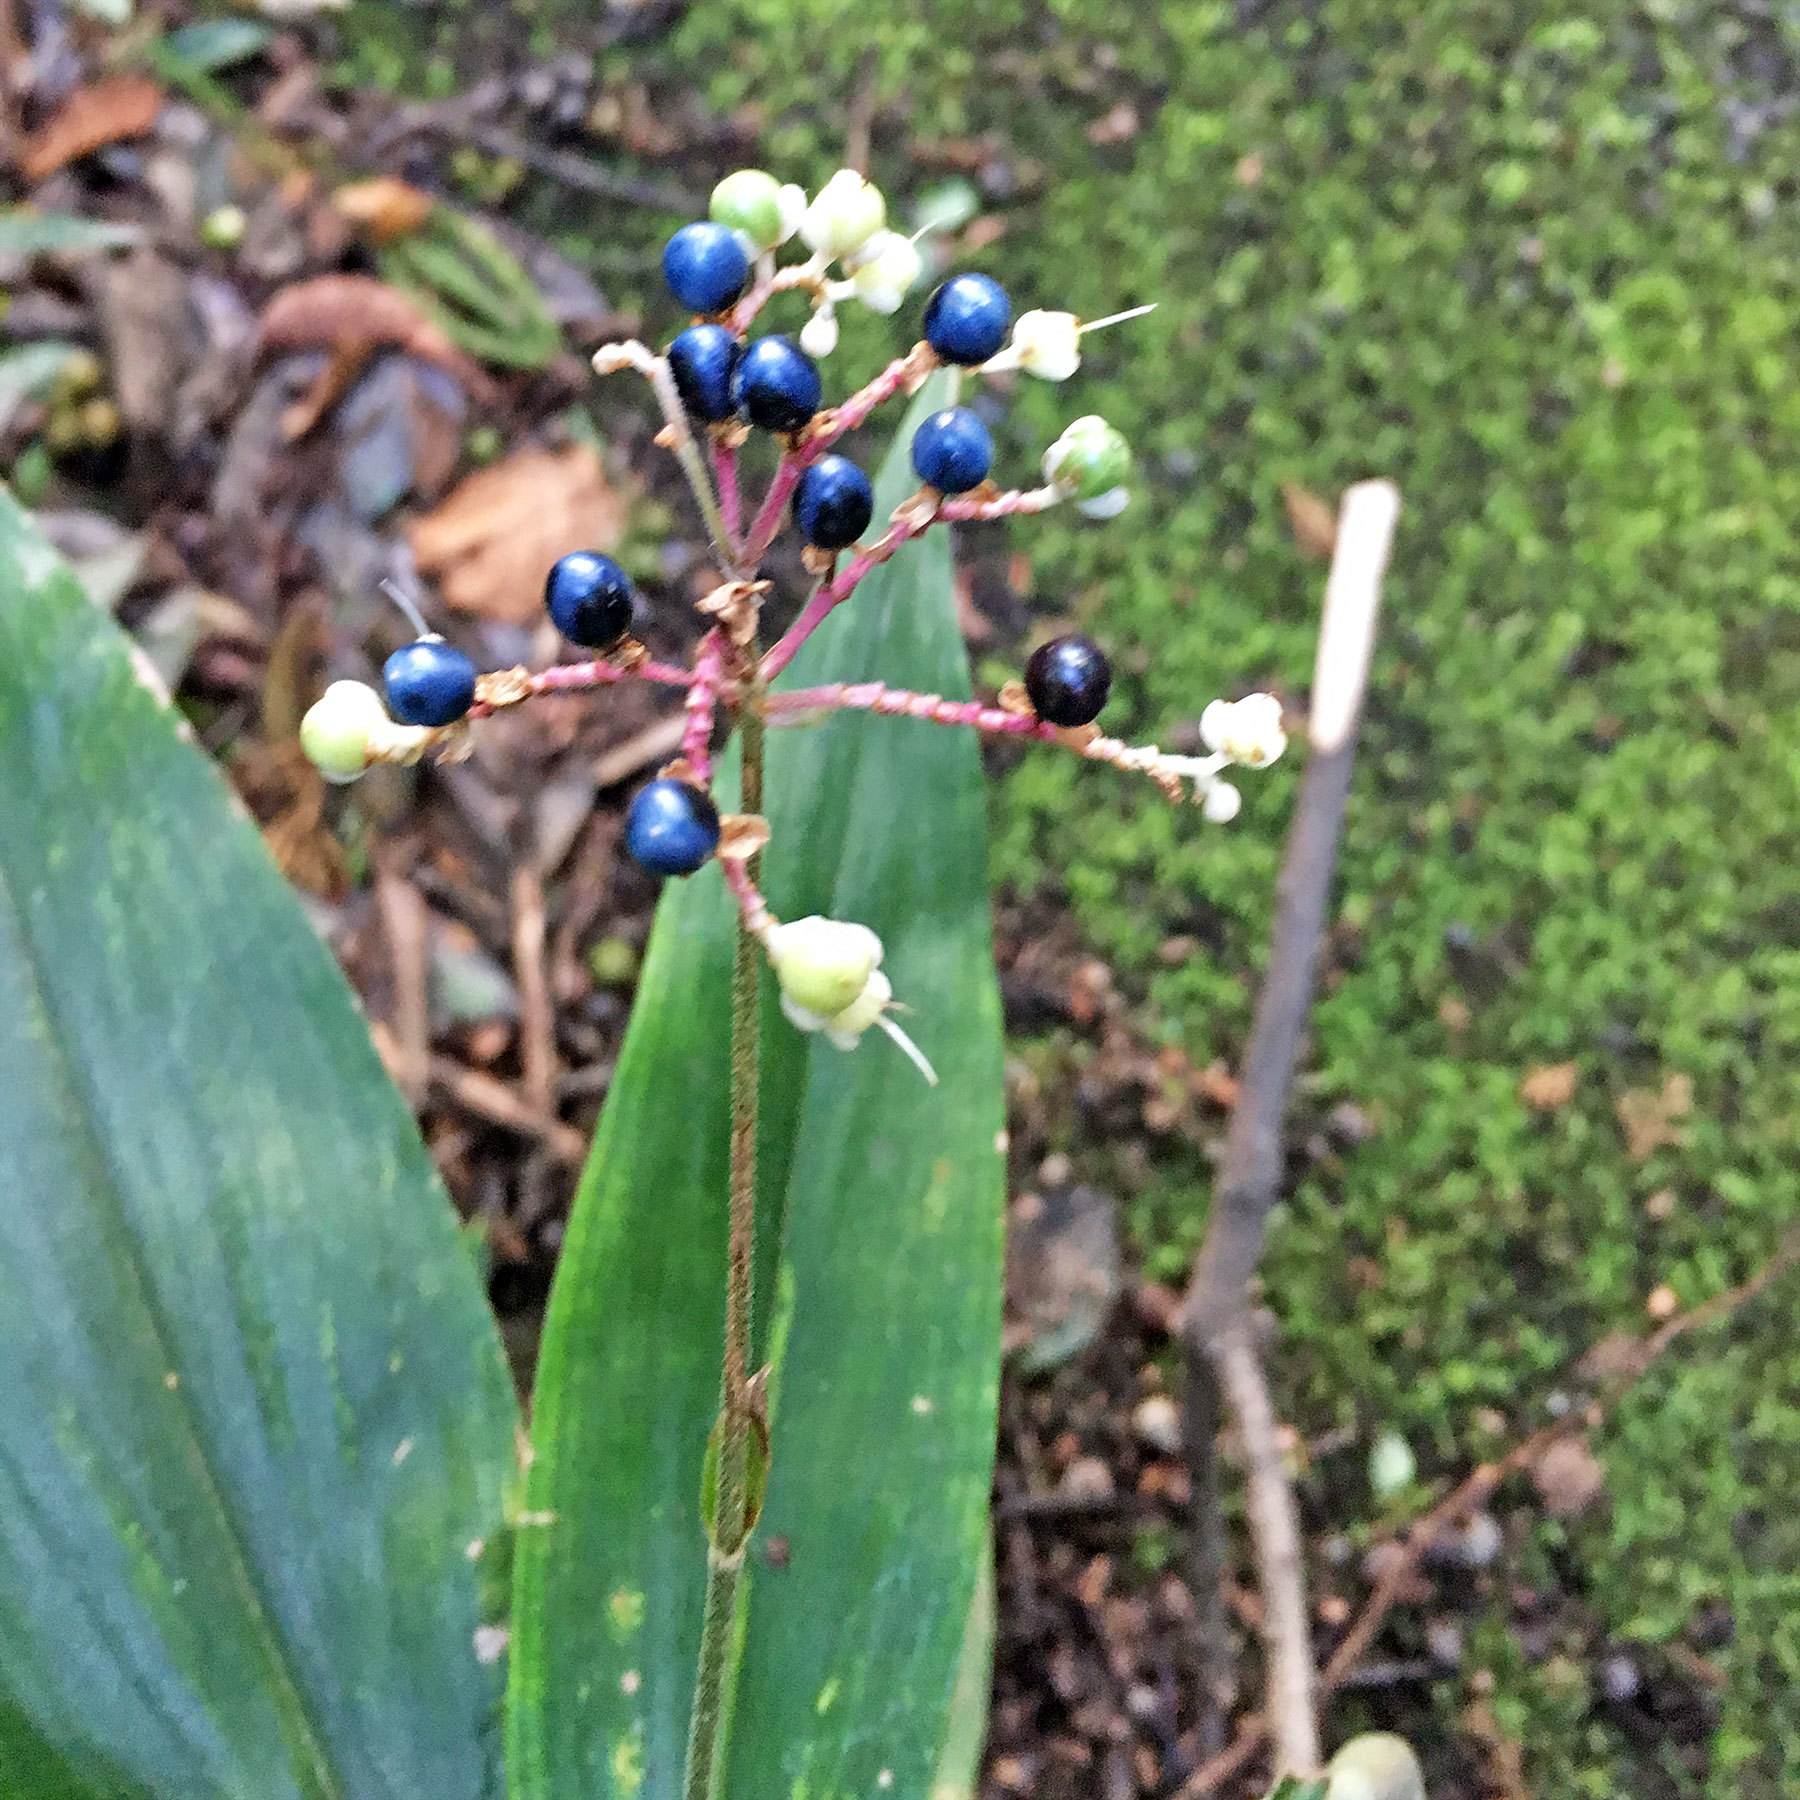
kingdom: Plantae
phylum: Tracheophyta
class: Liliopsida
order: Commelinales
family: Commelinaceae
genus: Pollia
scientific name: Pollia japonica
